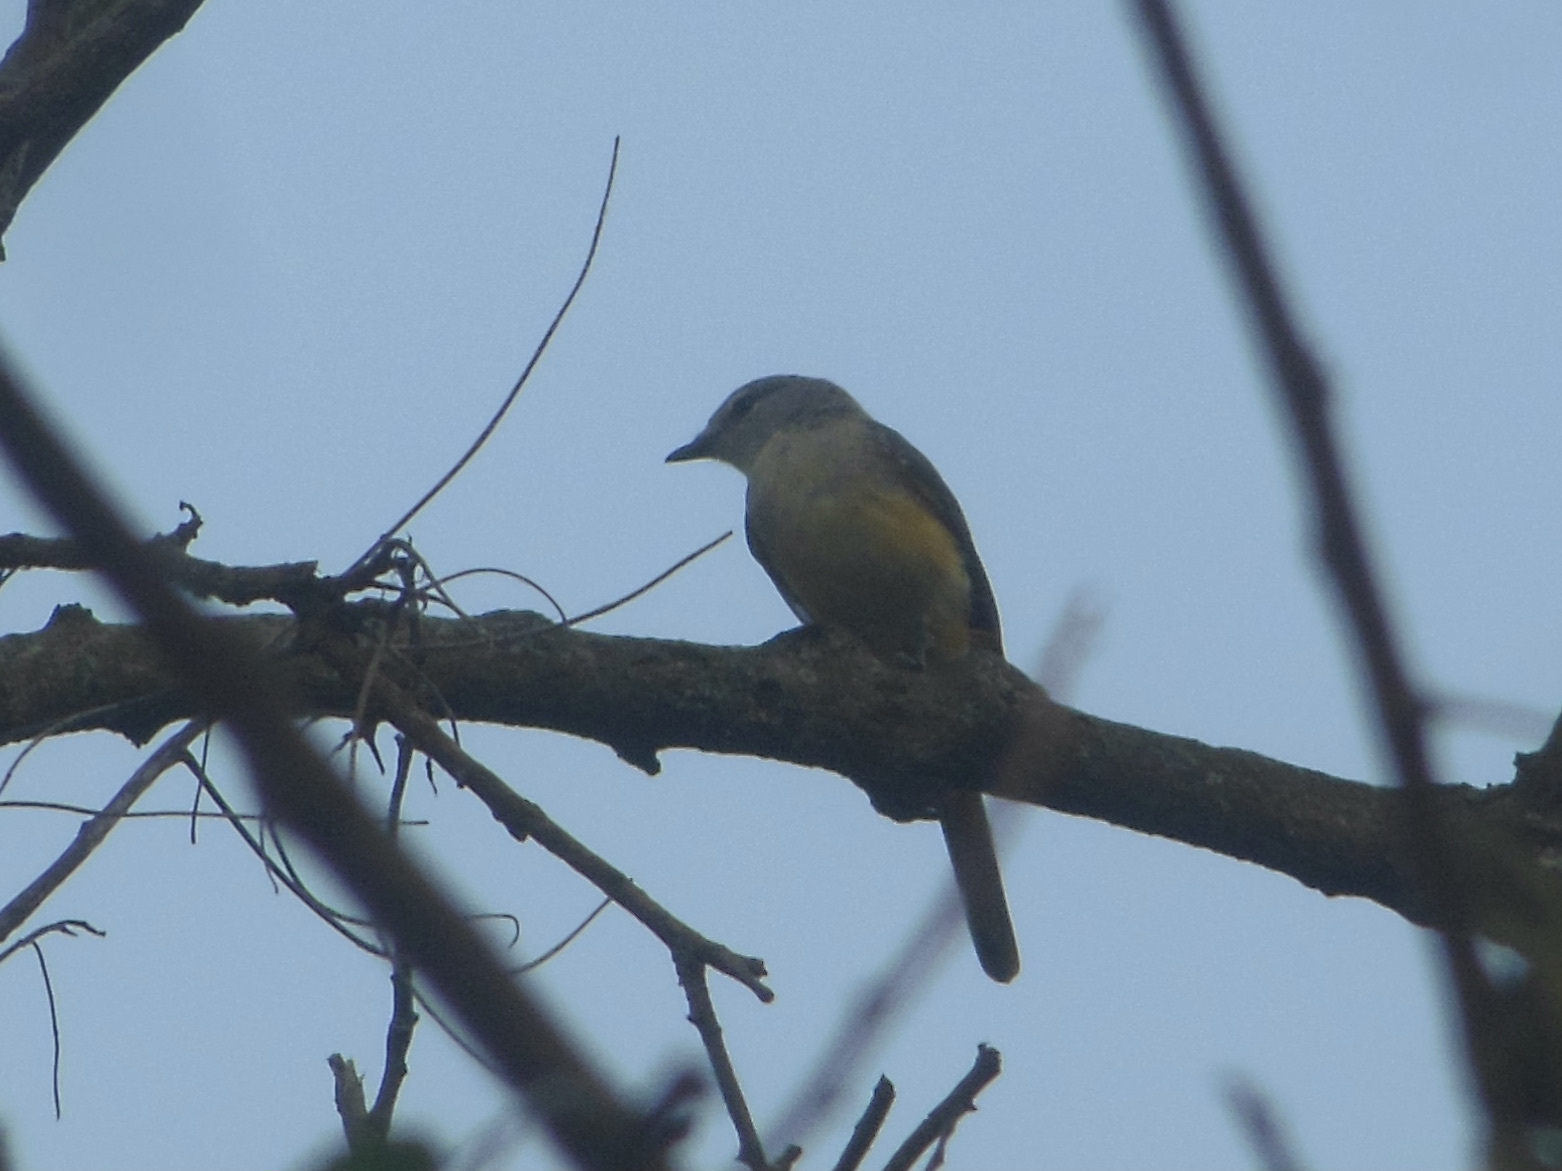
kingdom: Animalia
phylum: Chordata
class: Aves
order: Passeriformes
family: Campephagidae
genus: Pericrocotus
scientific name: Pericrocotus cinnamomeus
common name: Small minivet
